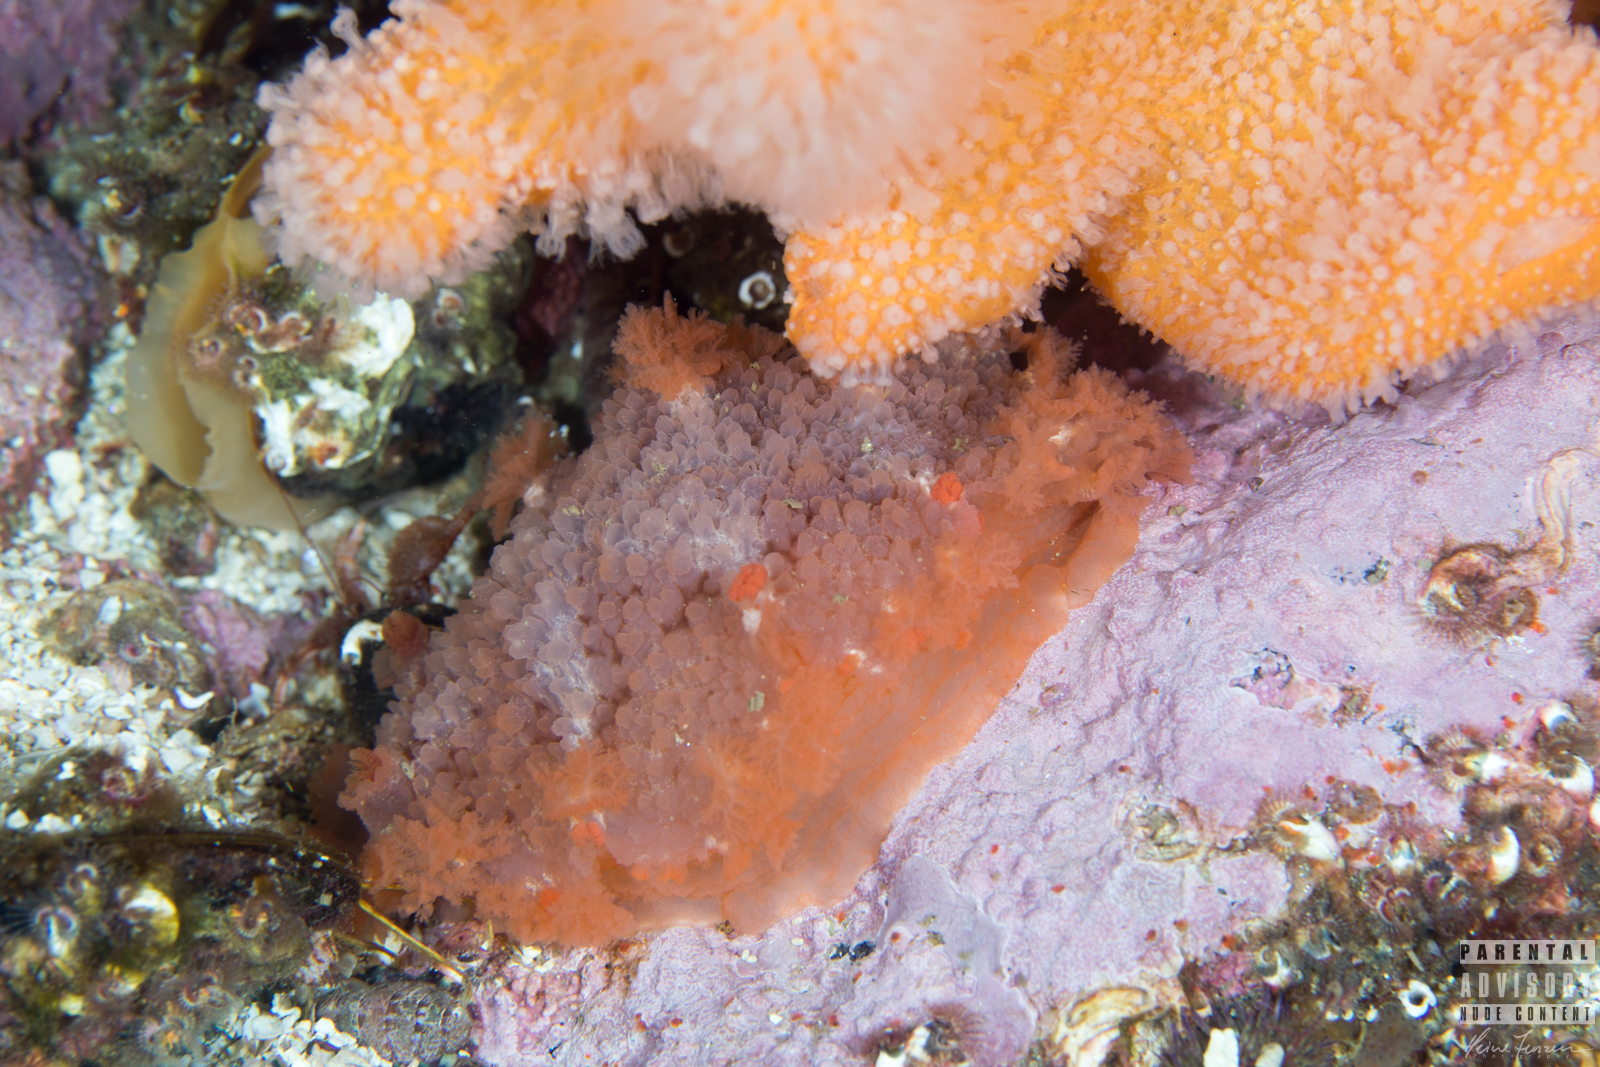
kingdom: Animalia
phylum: Mollusca
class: Gastropoda
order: Nudibranchia
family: Tritoniidae
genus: Tritonia
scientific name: Tritonia hombergii
